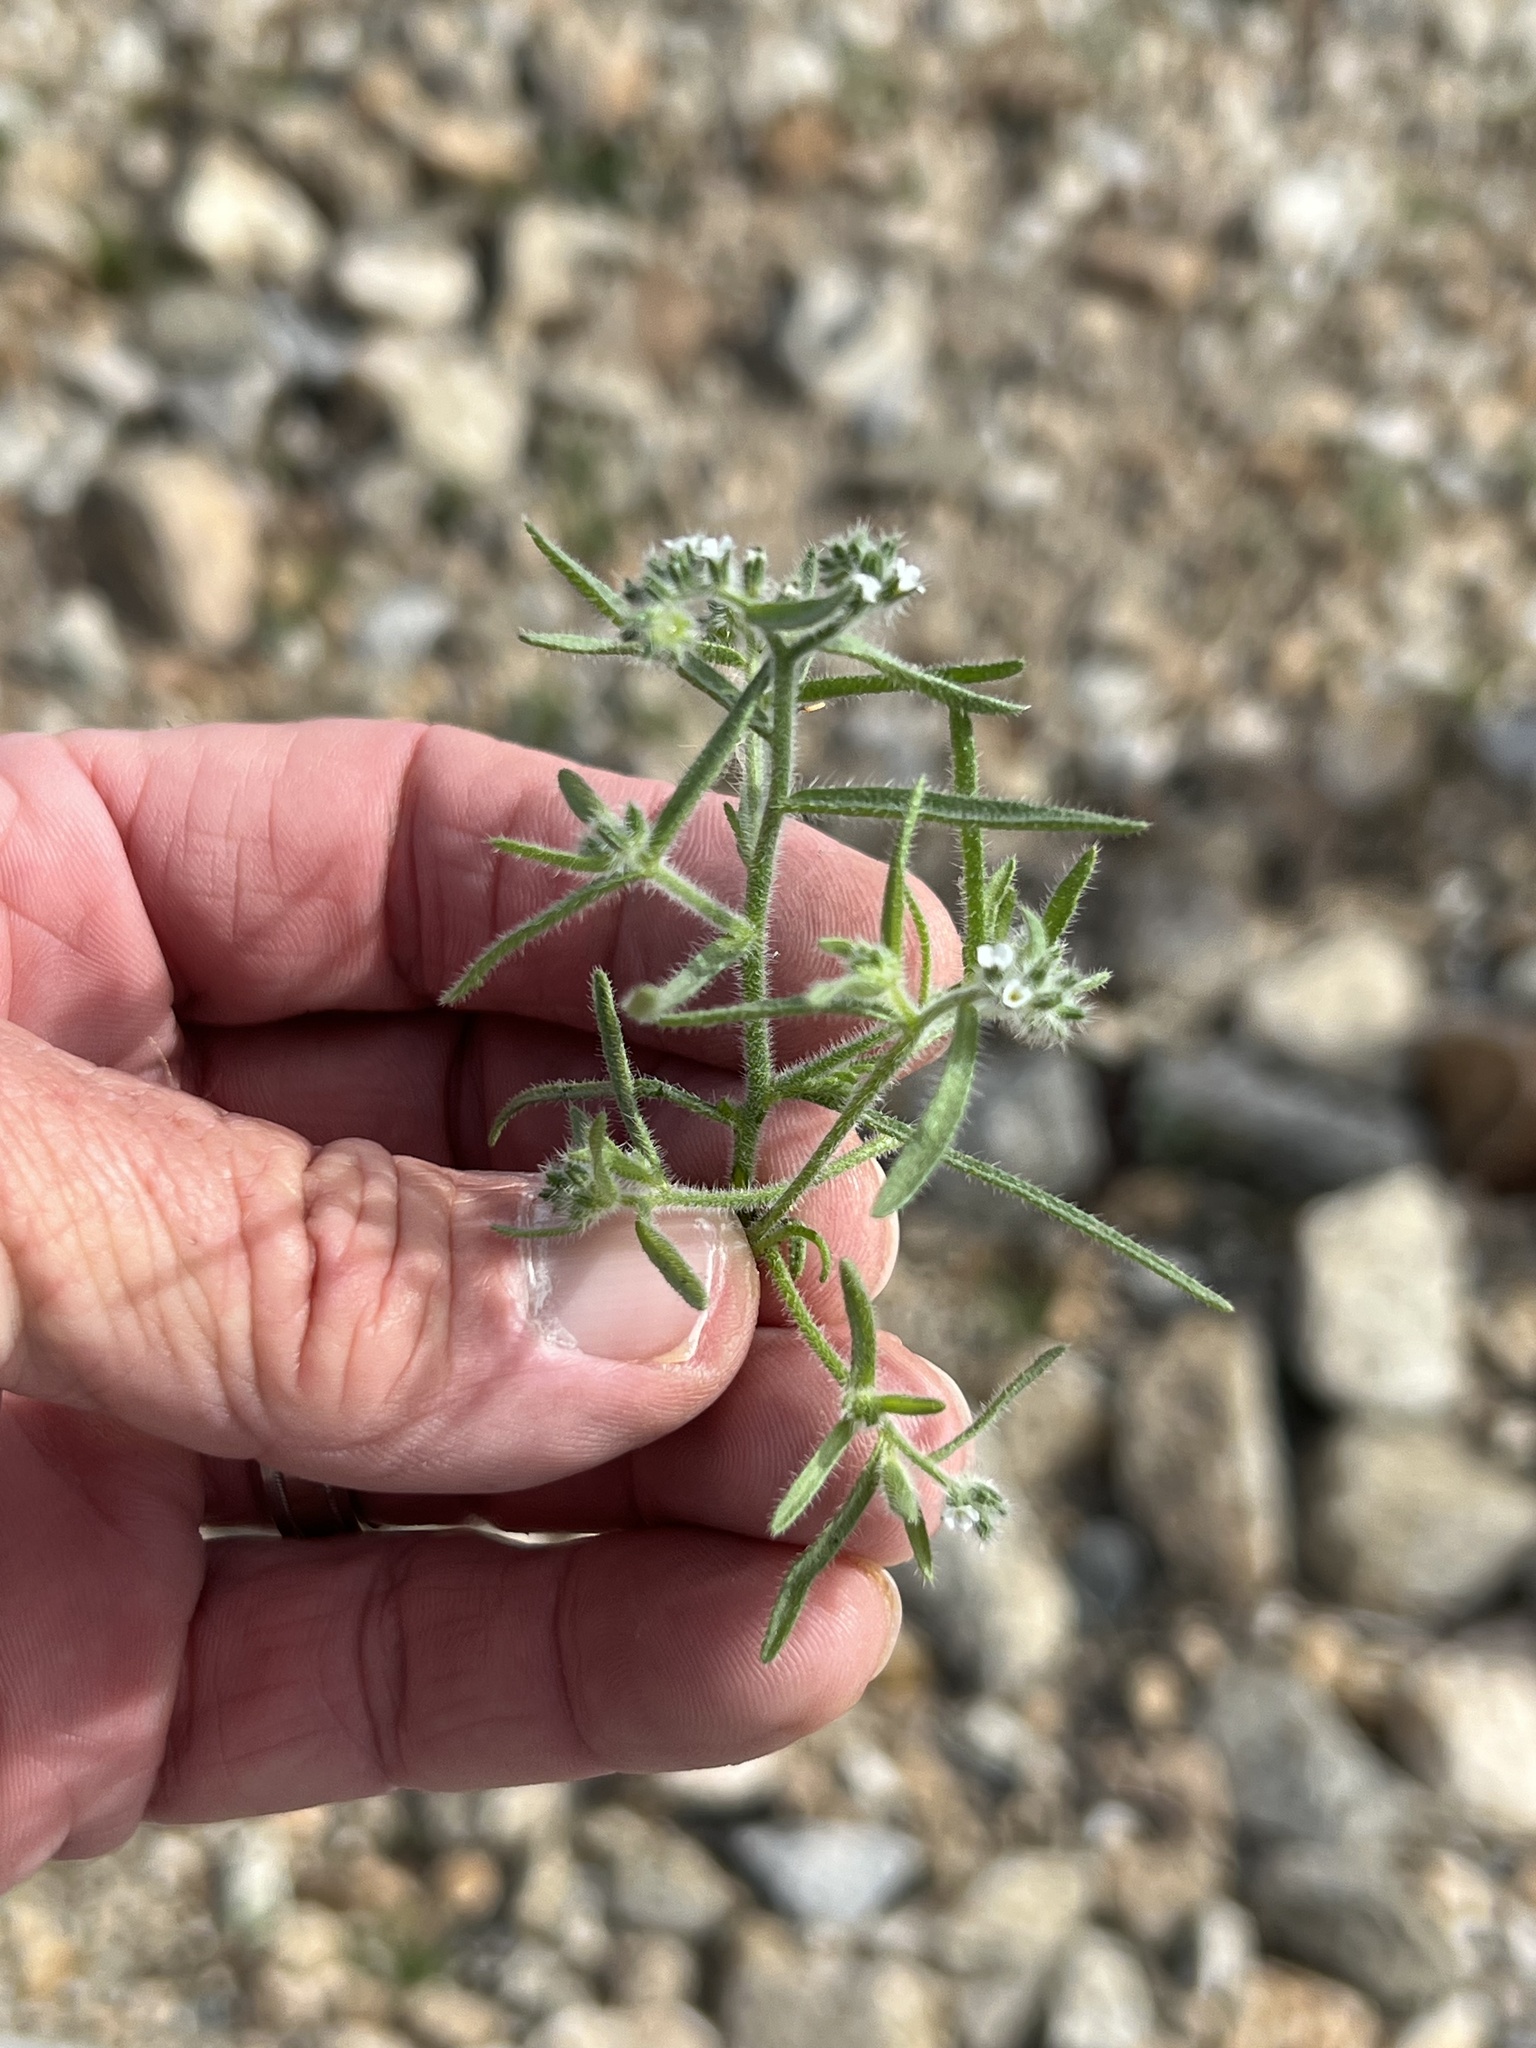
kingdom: Plantae
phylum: Tracheophyta
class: Magnoliopsida
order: Boraginales
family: Boraginaceae
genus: Johnstonella
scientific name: Johnstonella angustifolia
